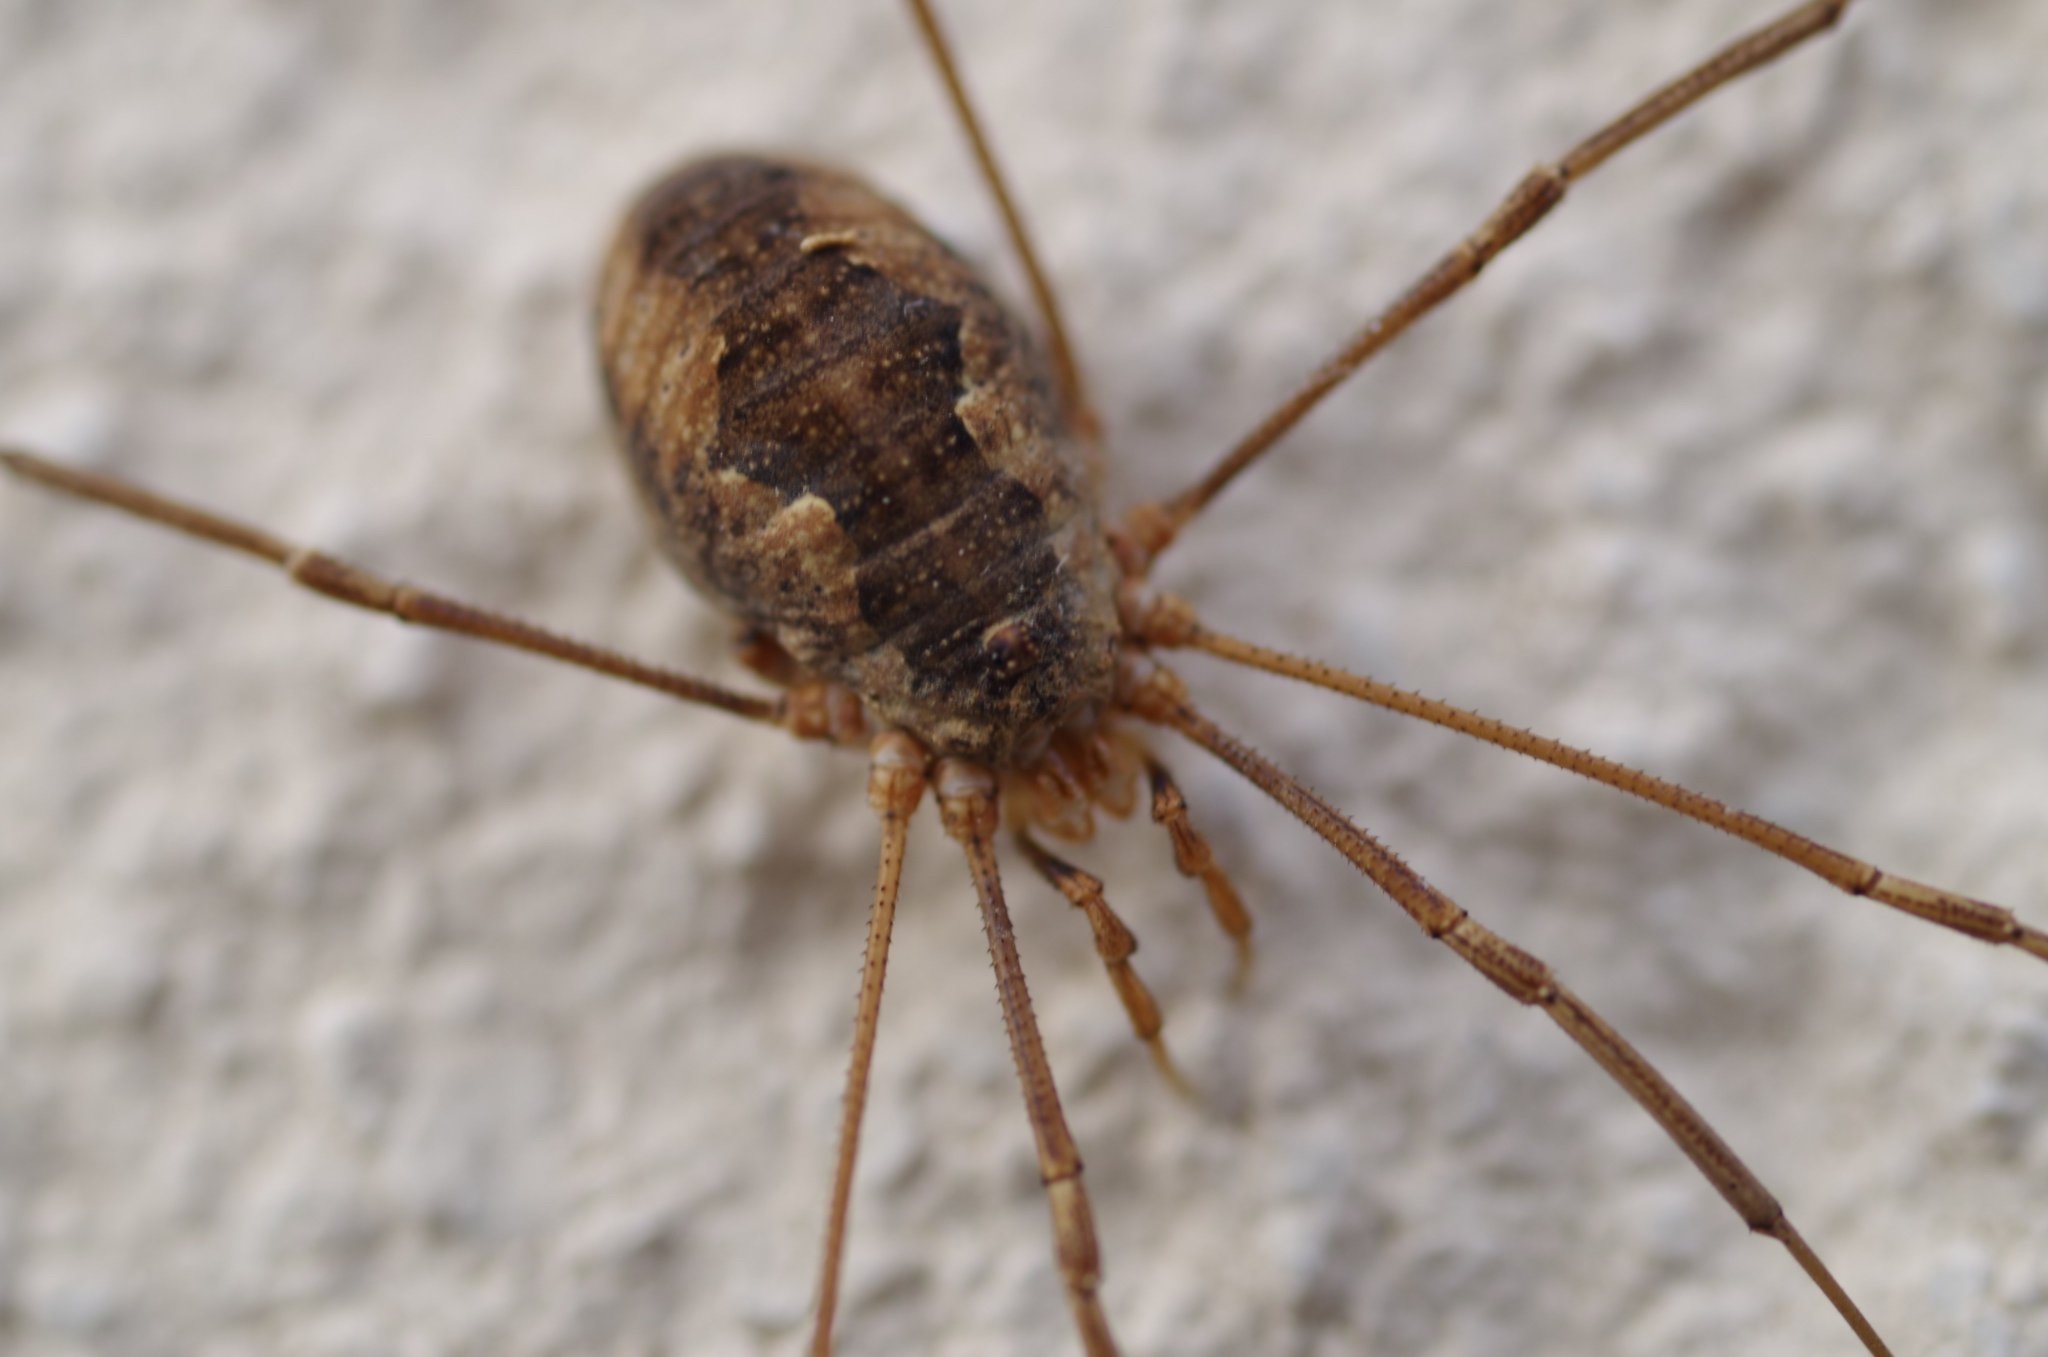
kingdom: Animalia
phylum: Arthropoda
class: Arachnida
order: Opiliones
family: Phalangiidae
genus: Phalangium
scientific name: Phalangium opilio
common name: Daddy longleg
